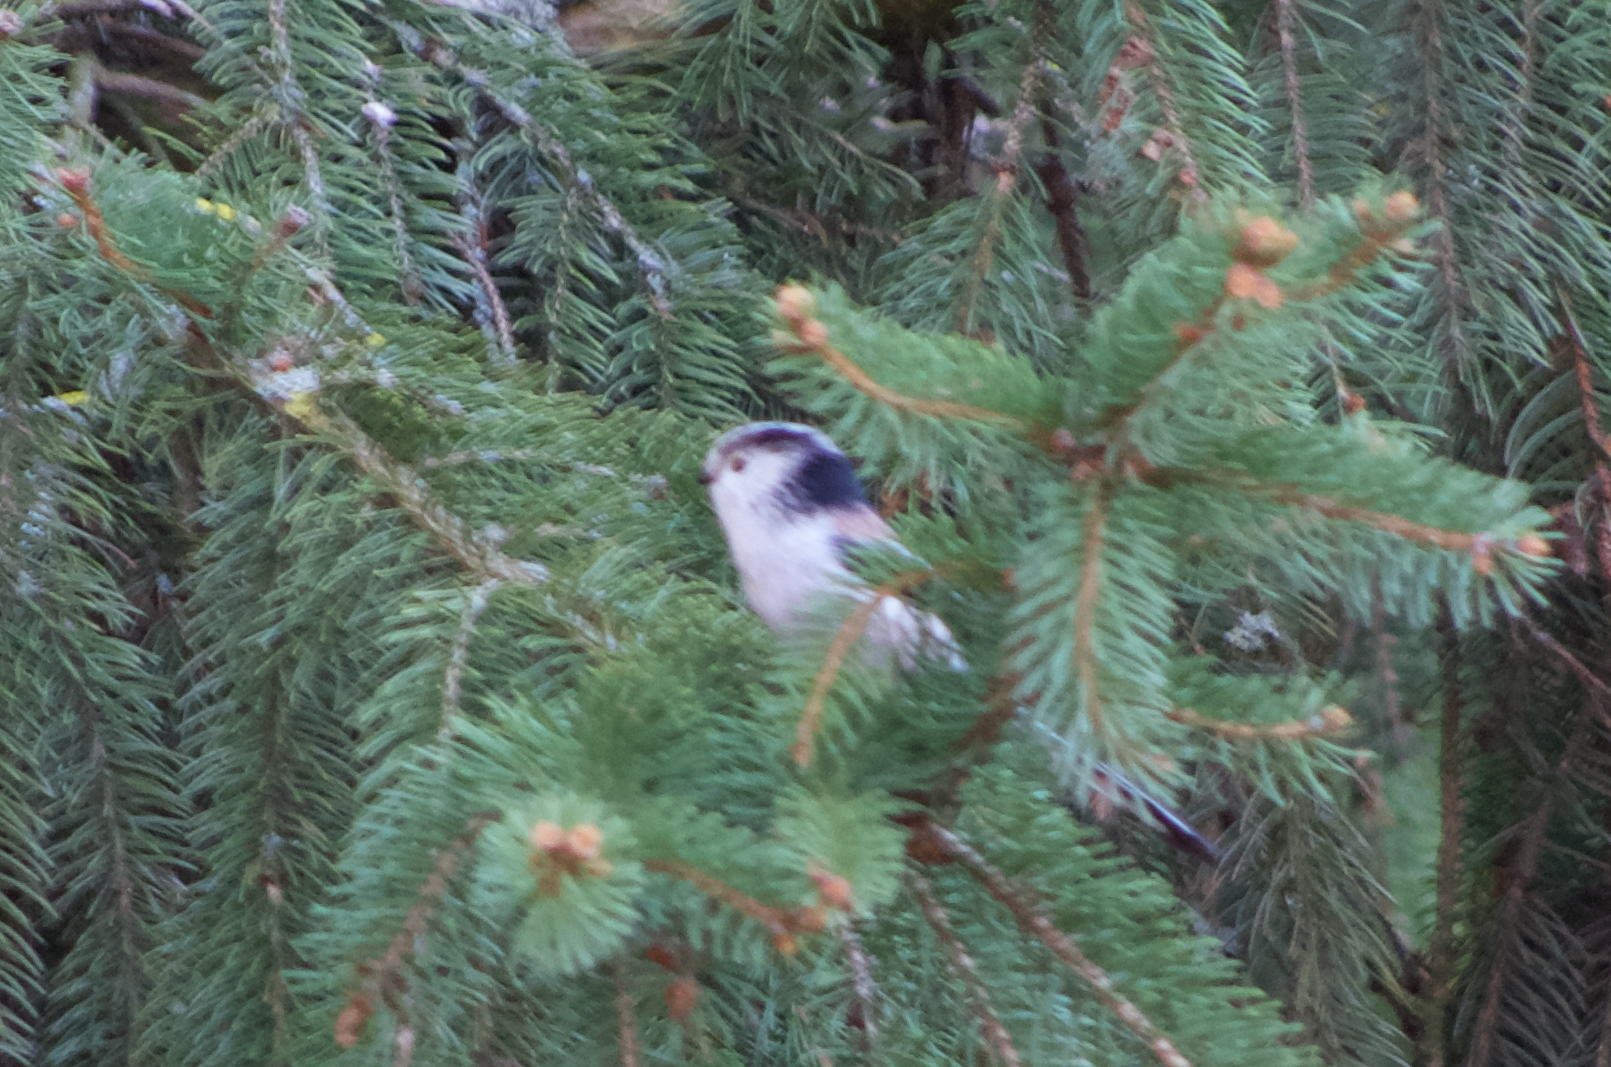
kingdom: Animalia
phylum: Chordata
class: Aves
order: Passeriformes
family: Aegithalidae
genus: Aegithalos
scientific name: Aegithalos caudatus
